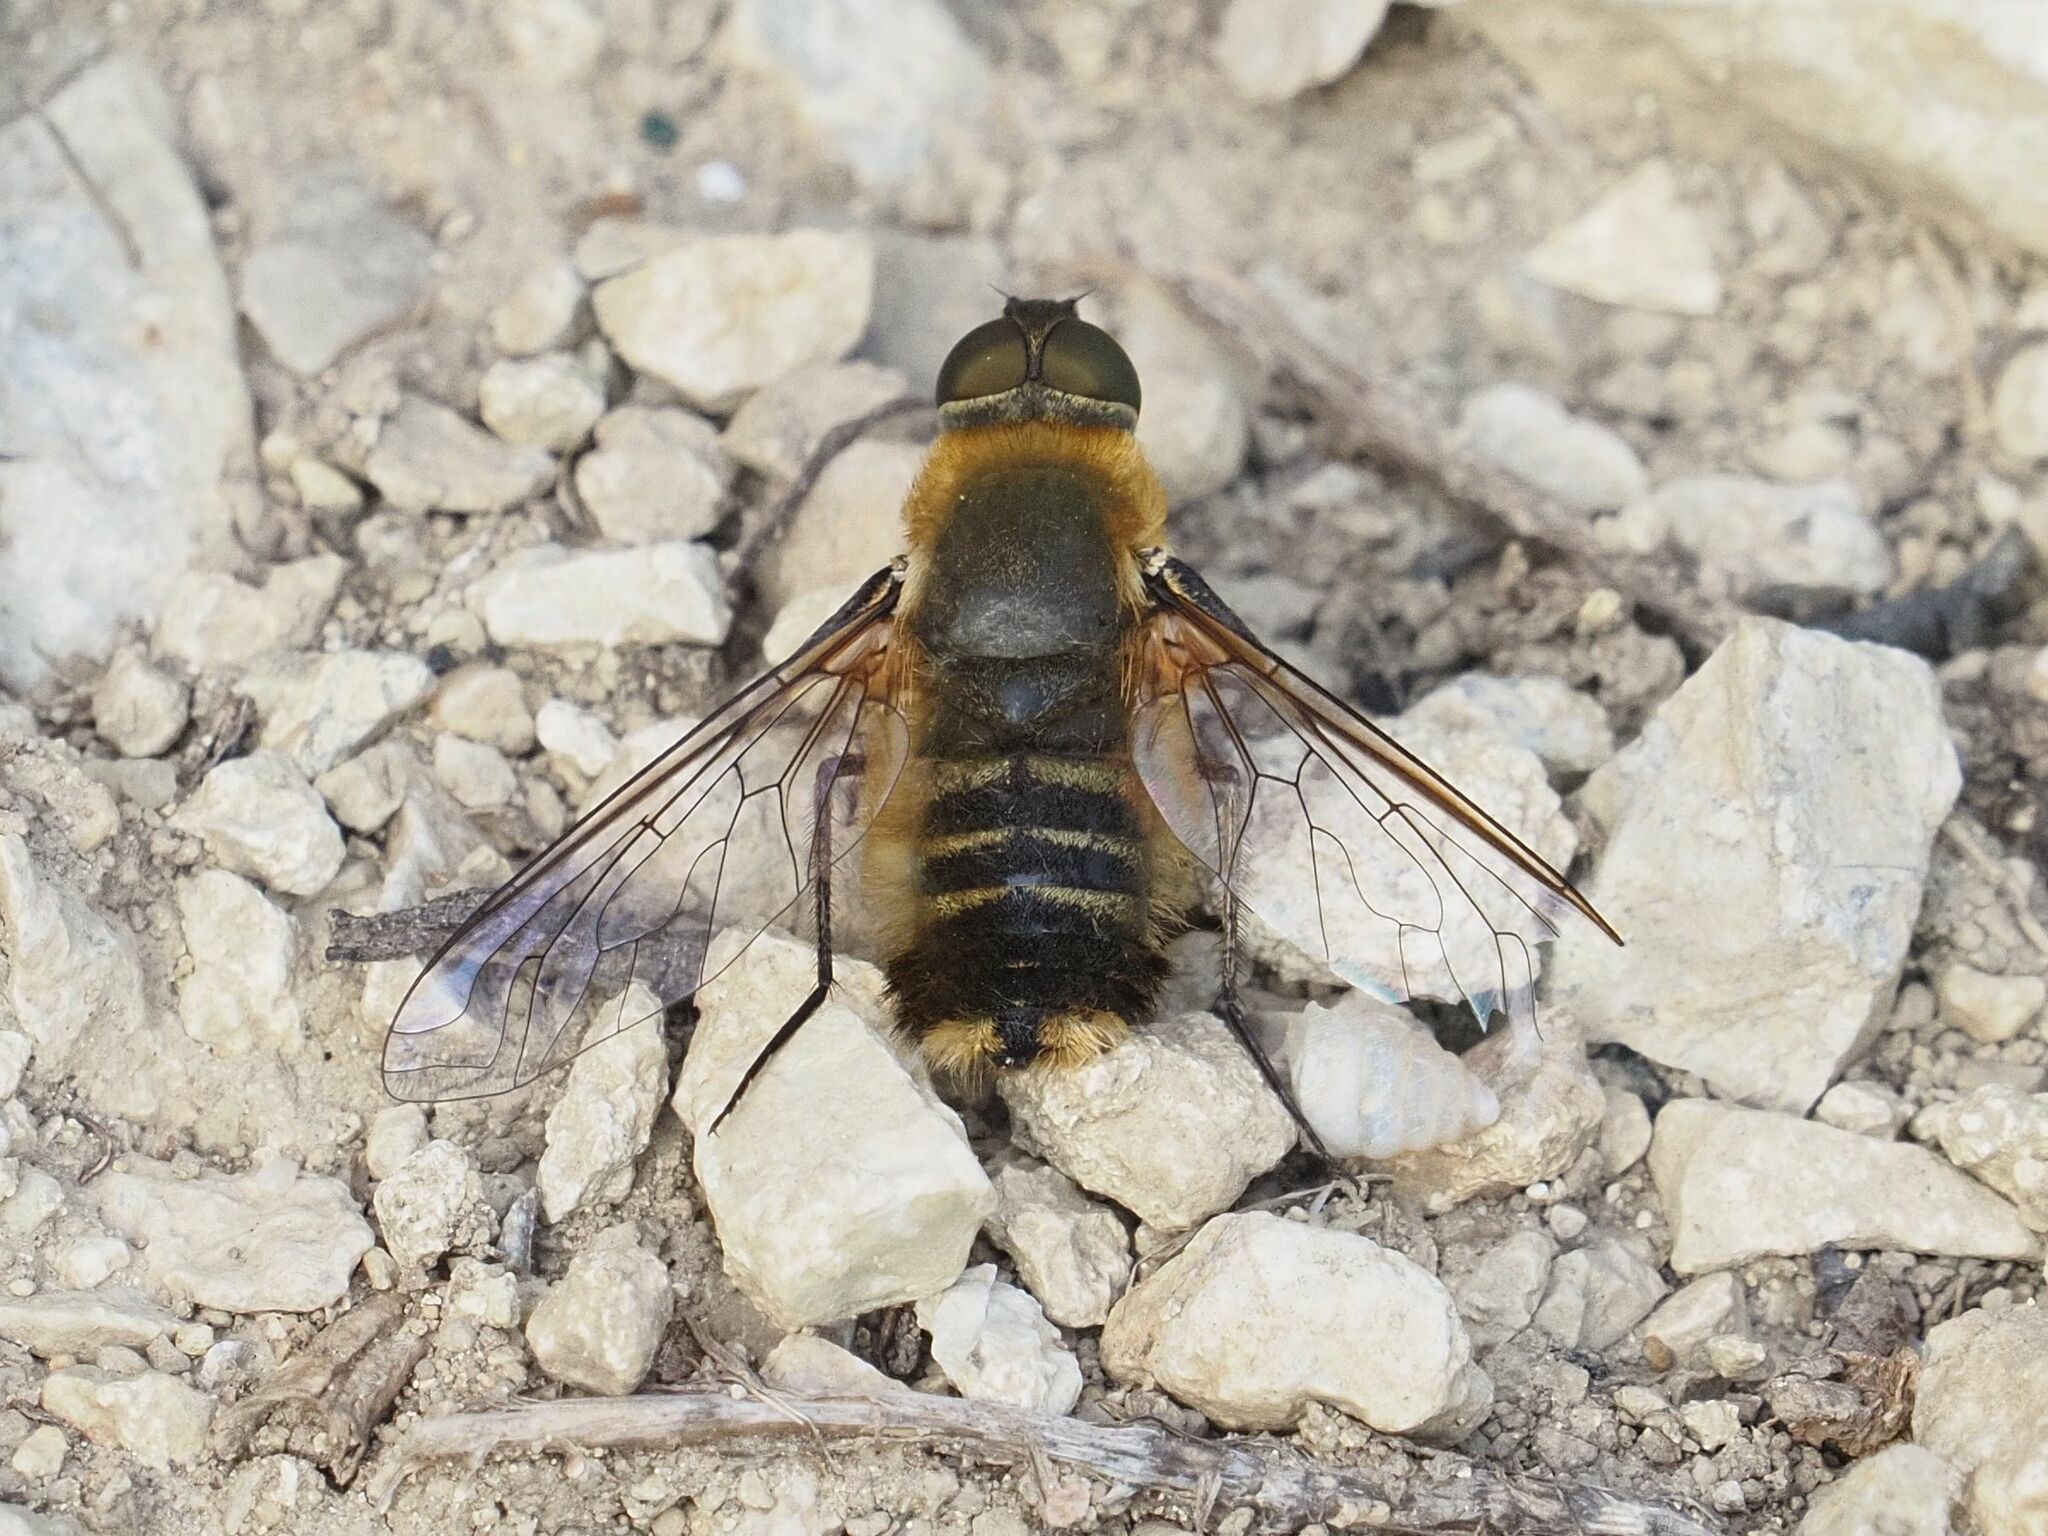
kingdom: Animalia
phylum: Arthropoda
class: Insecta
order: Diptera
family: Bombyliidae
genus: Villa
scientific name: Villa hottentotta
